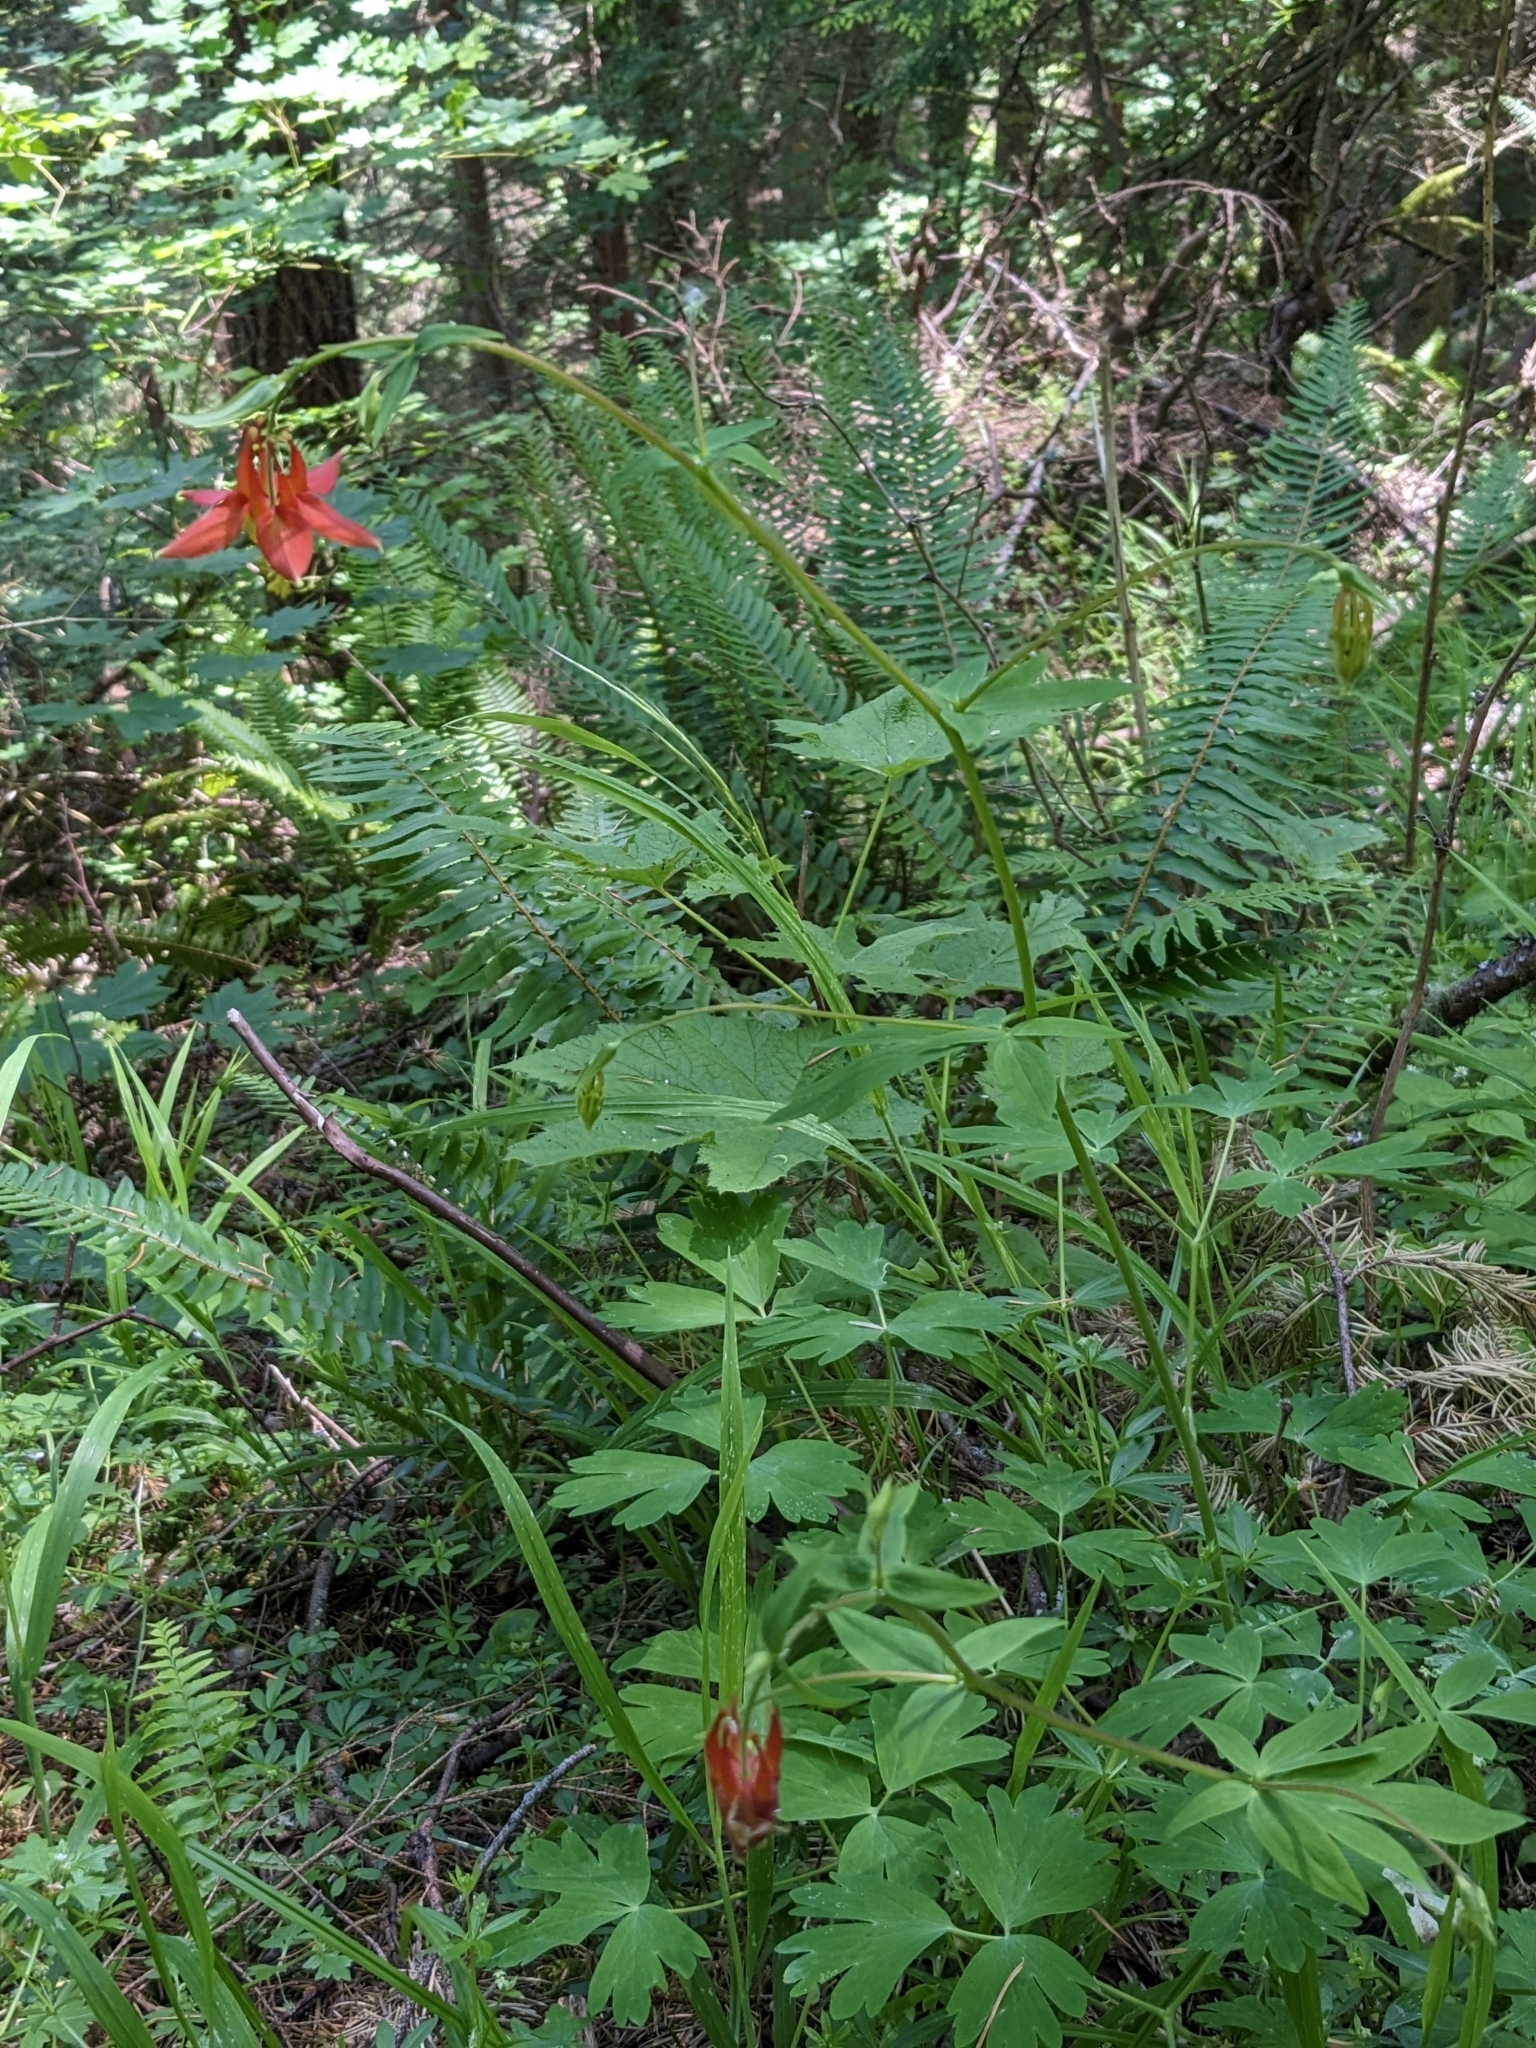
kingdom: Plantae
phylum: Tracheophyta
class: Magnoliopsida
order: Ranunculales
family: Ranunculaceae
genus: Aquilegia
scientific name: Aquilegia formosa
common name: Sitka columbine
